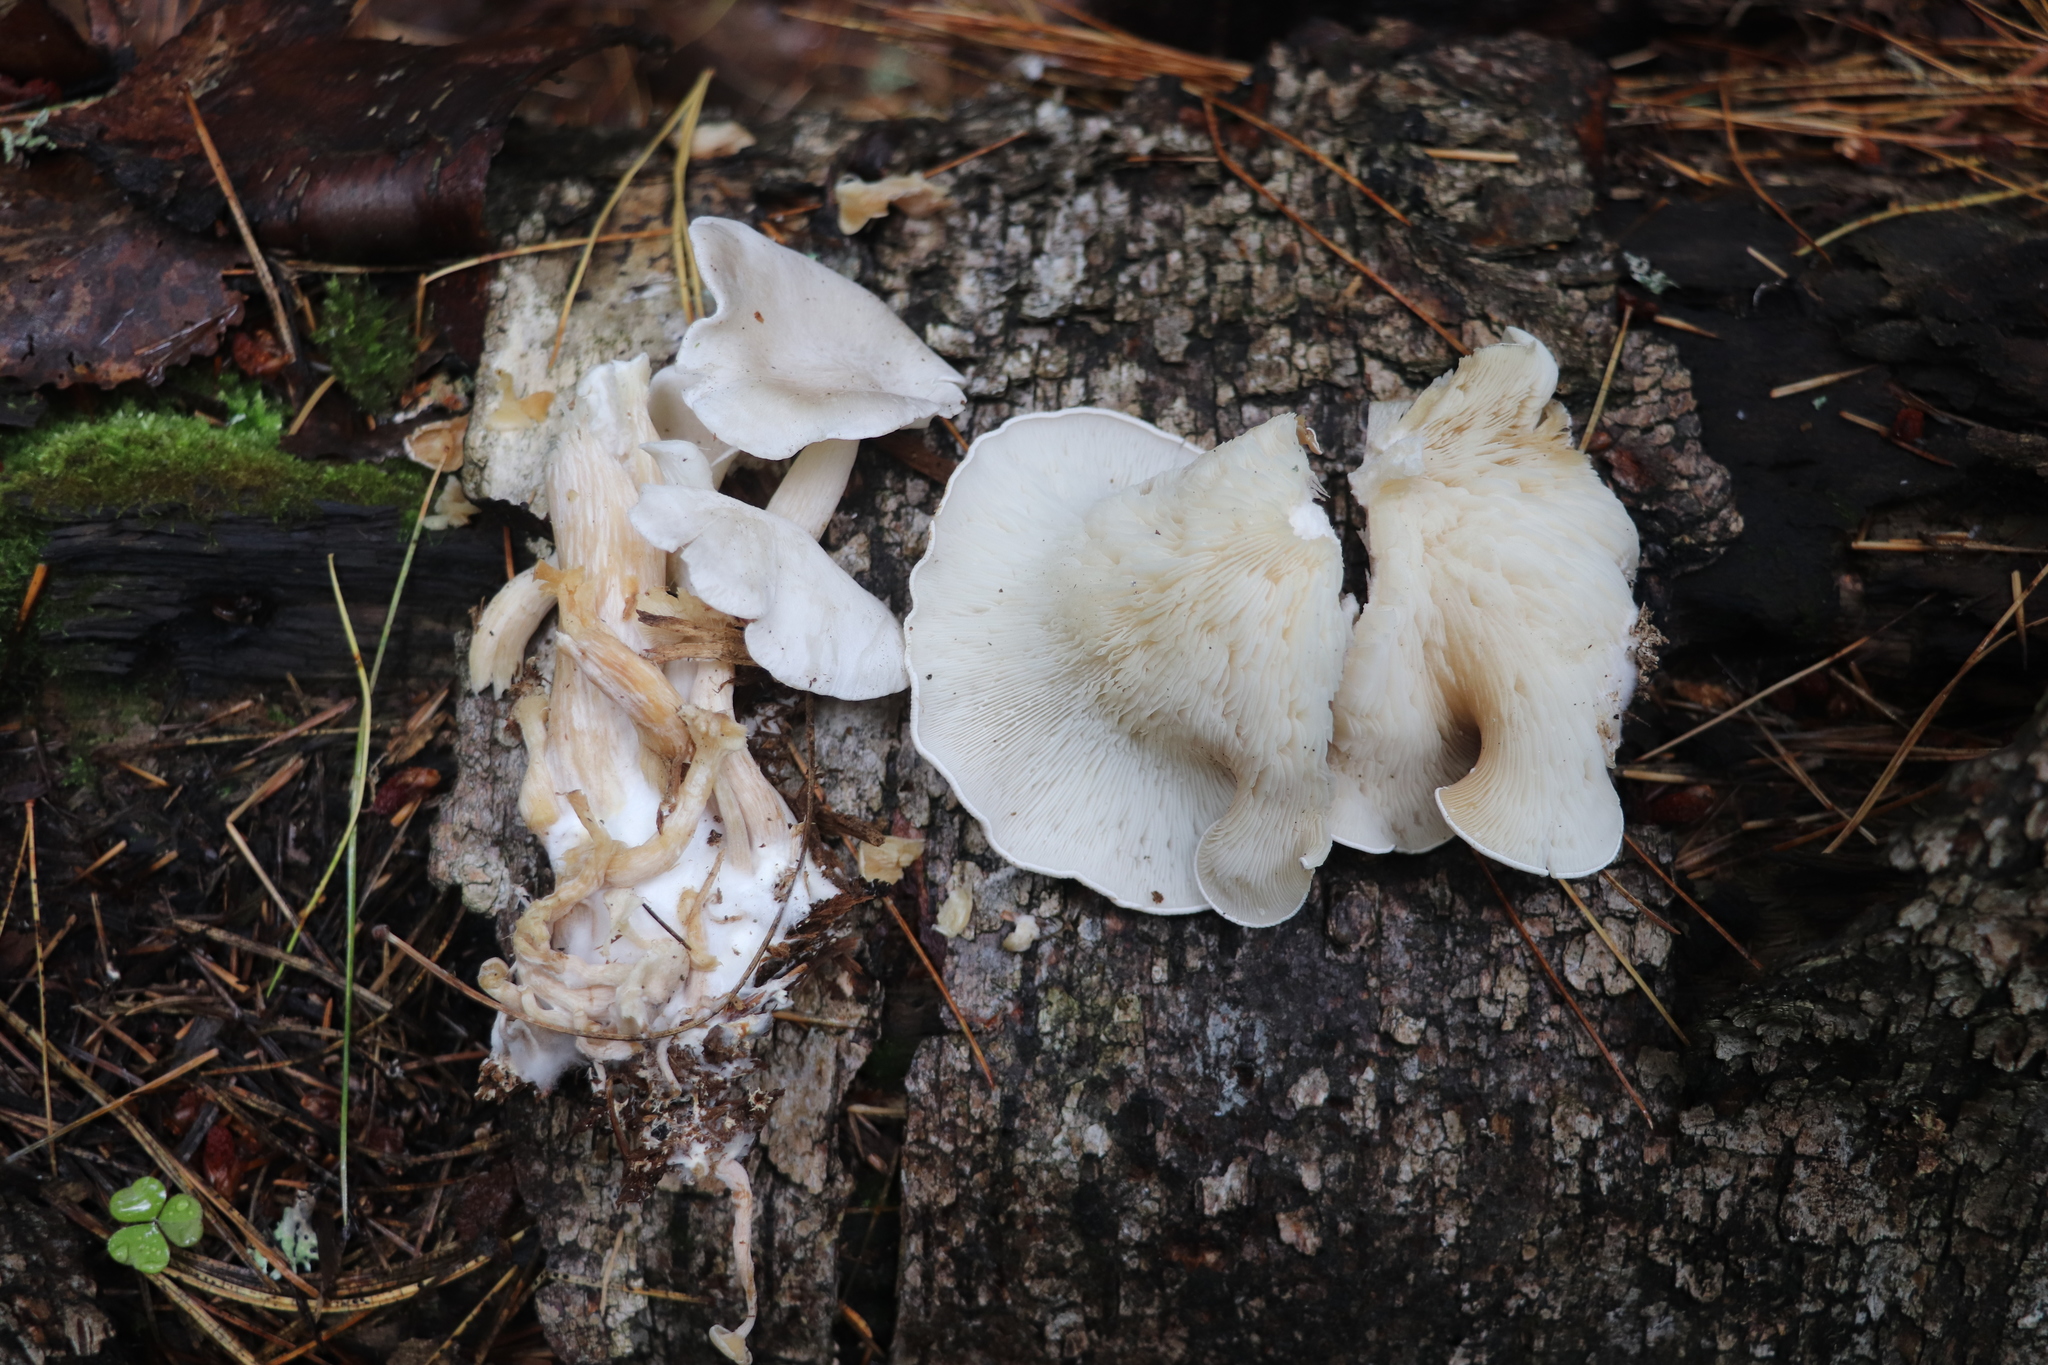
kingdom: Fungi
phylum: Basidiomycota
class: Agaricomycetes
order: Agaricales
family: Lyophyllaceae
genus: Ossicaulis
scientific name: Ossicaulis lignatilis
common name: Mealy oyster
